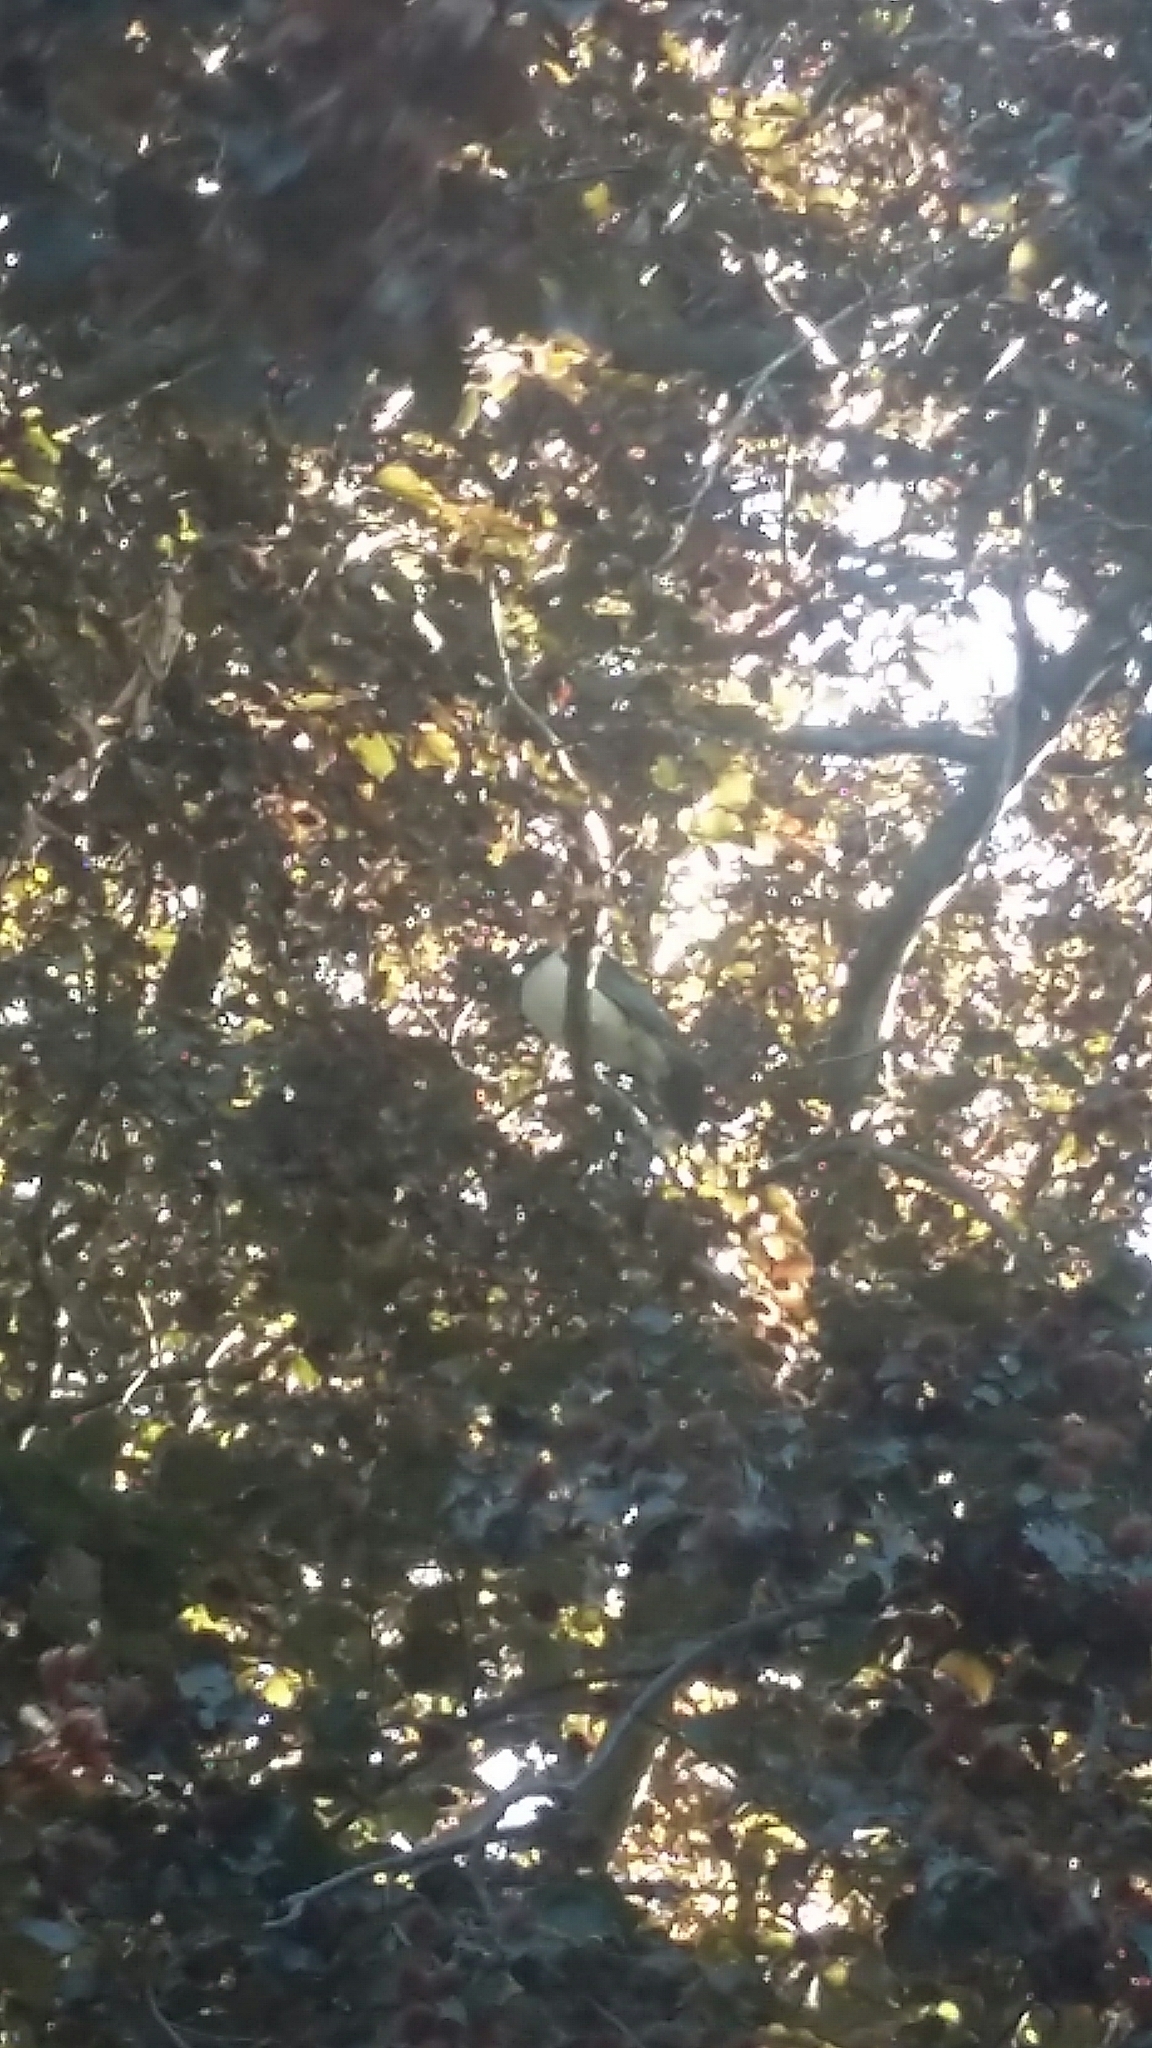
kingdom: Animalia
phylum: Chordata
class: Aves
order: Columbiformes
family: Columbidae
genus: Hemiphaga
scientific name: Hemiphaga novaeseelandiae
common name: New zealand pigeon
